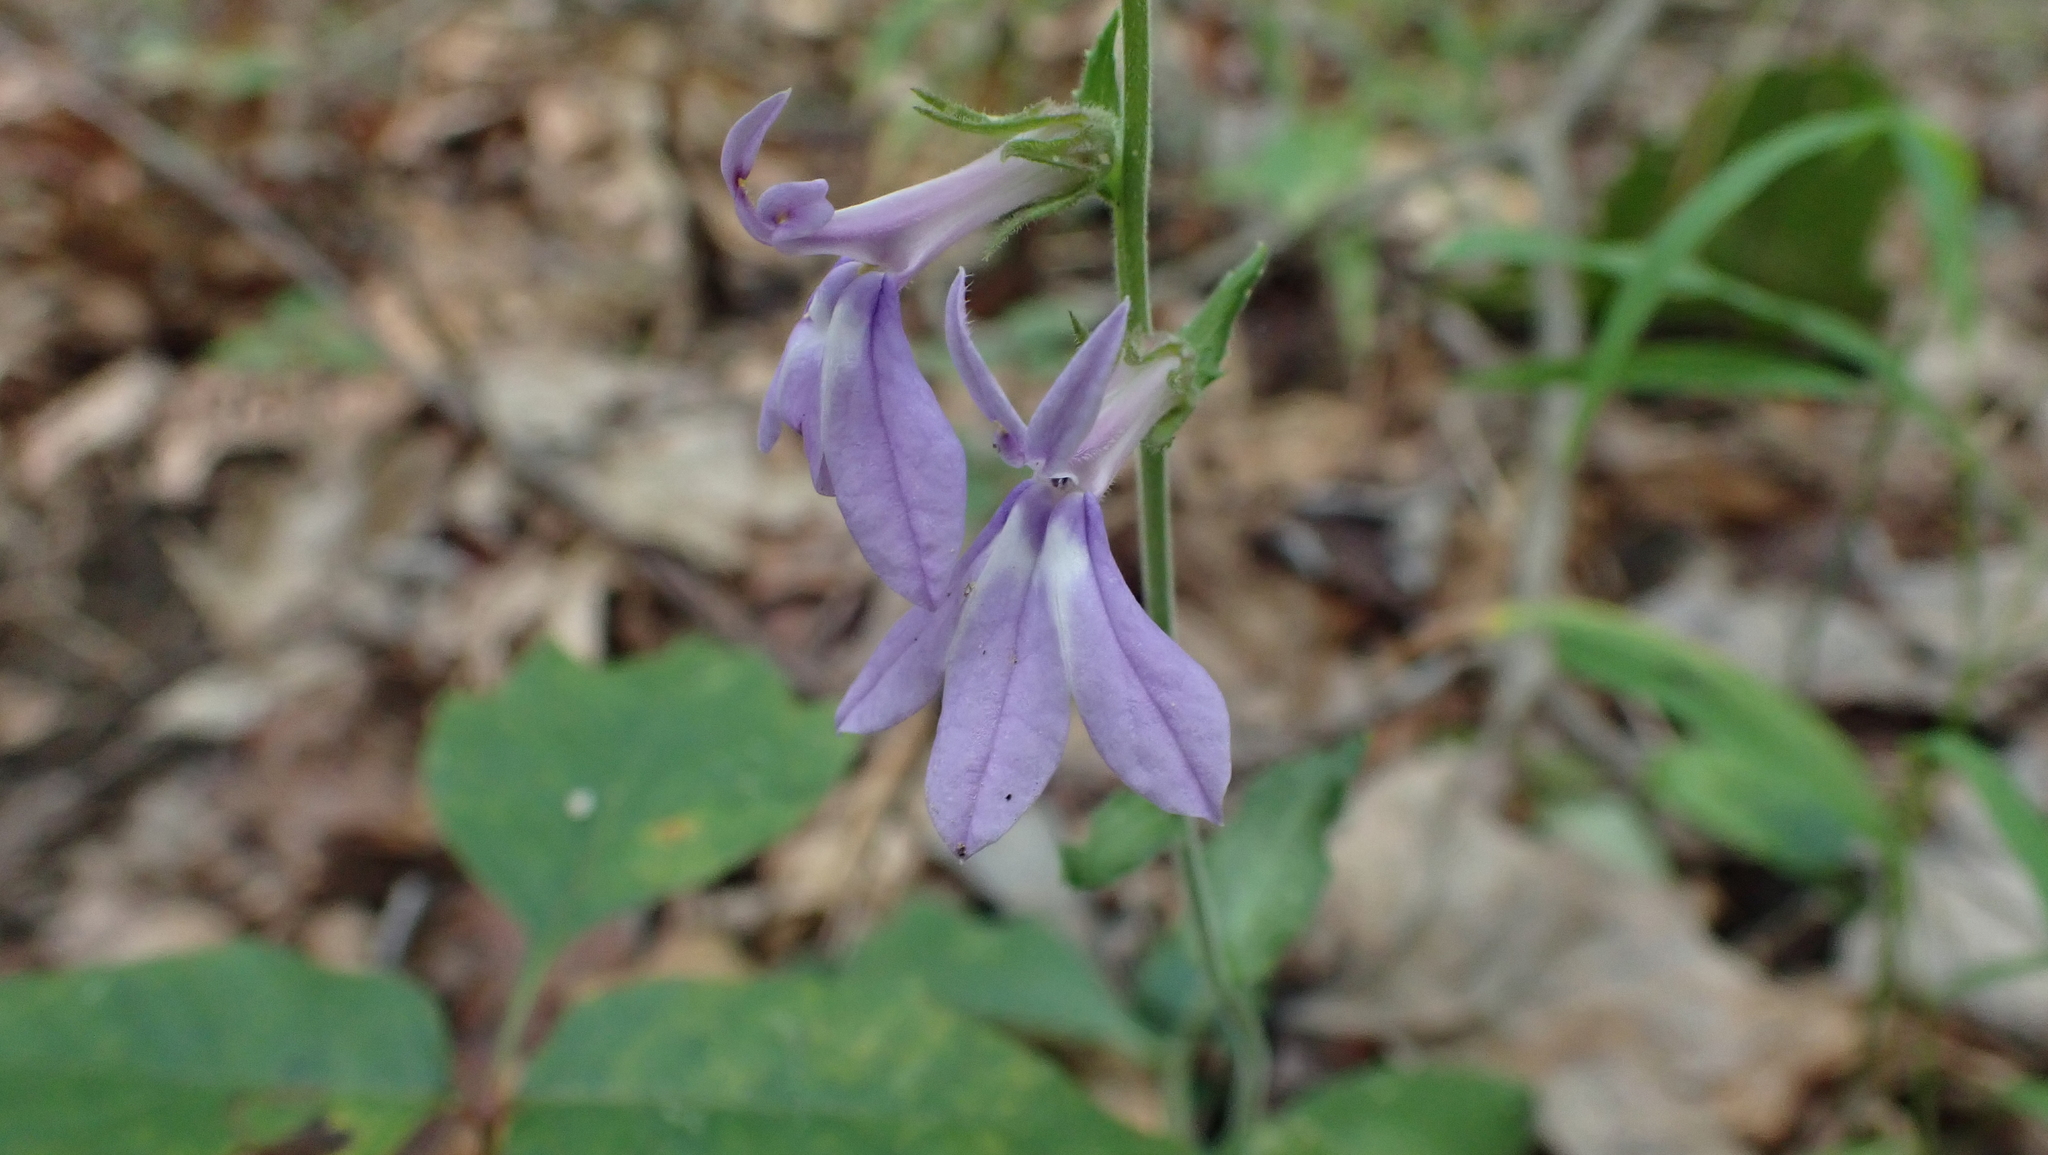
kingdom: Plantae
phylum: Tracheophyta
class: Magnoliopsida
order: Asterales
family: Campanulaceae
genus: Lobelia
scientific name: Lobelia puberula
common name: Purple dewdrop
